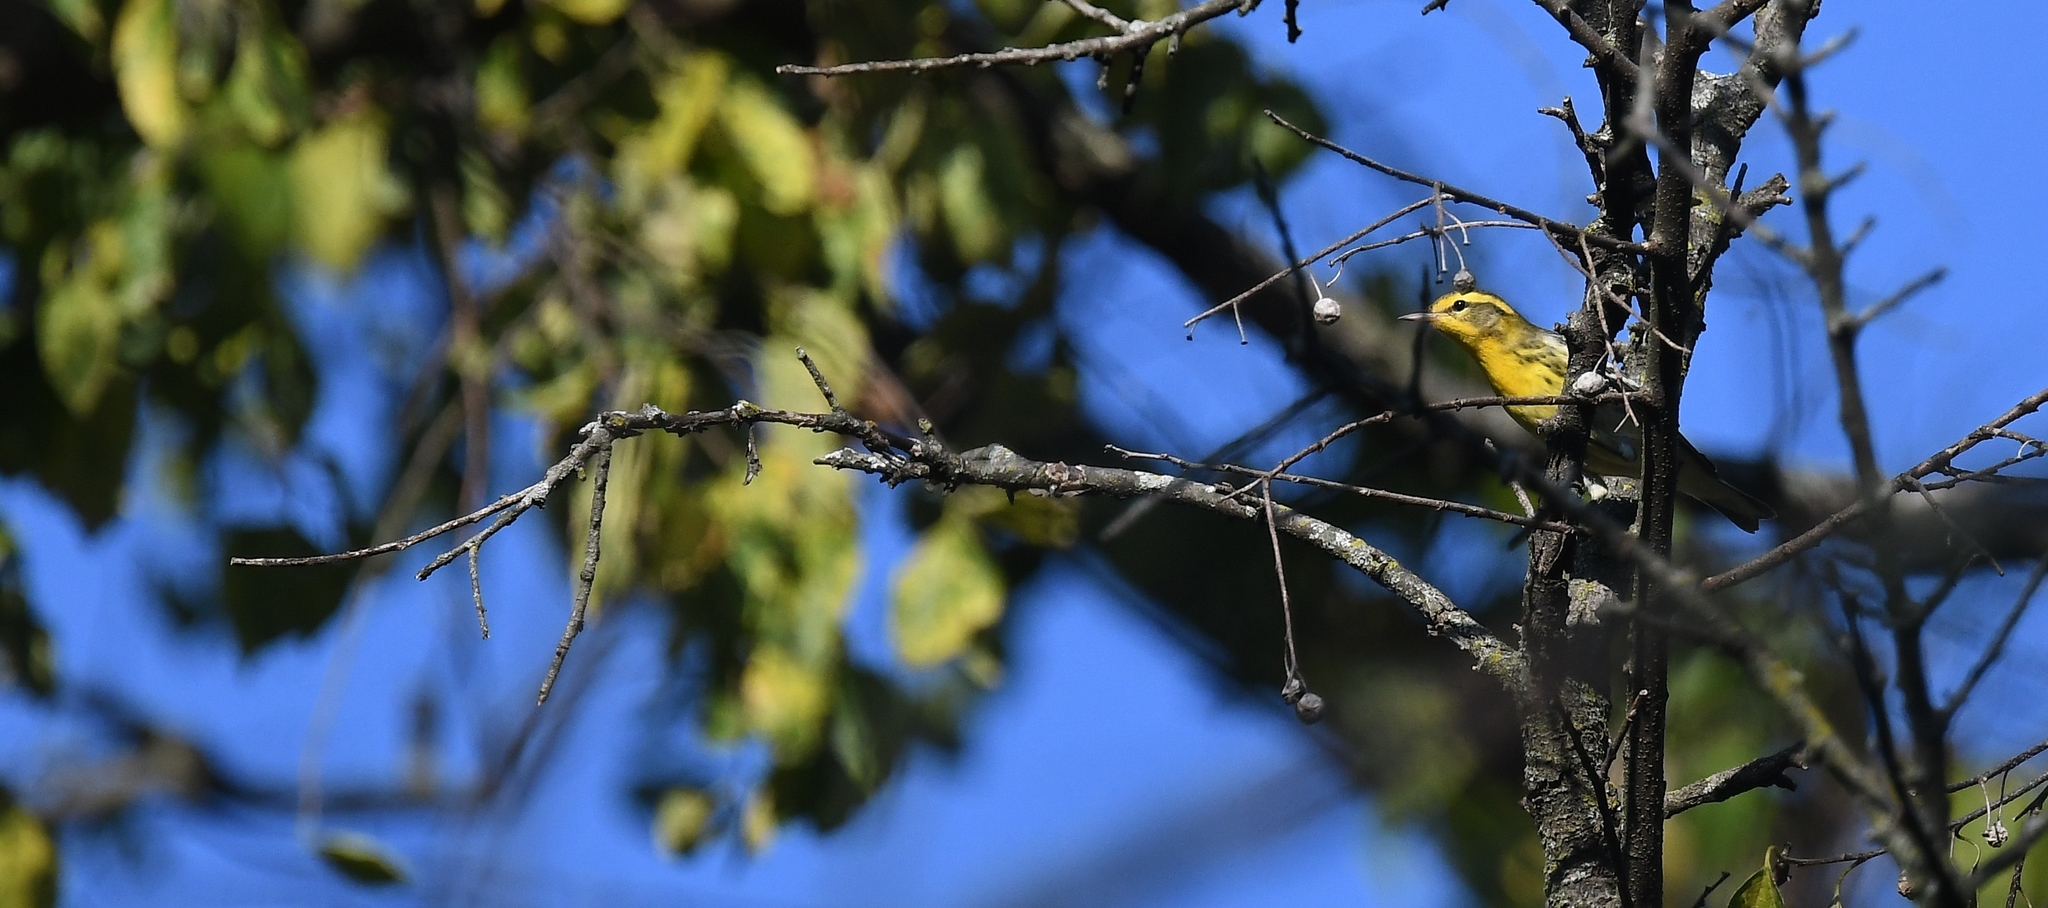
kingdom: Animalia
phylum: Chordata
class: Aves
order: Passeriformes
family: Parulidae
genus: Setophaga
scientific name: Setophaga fusca
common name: Blackburnian warbler
